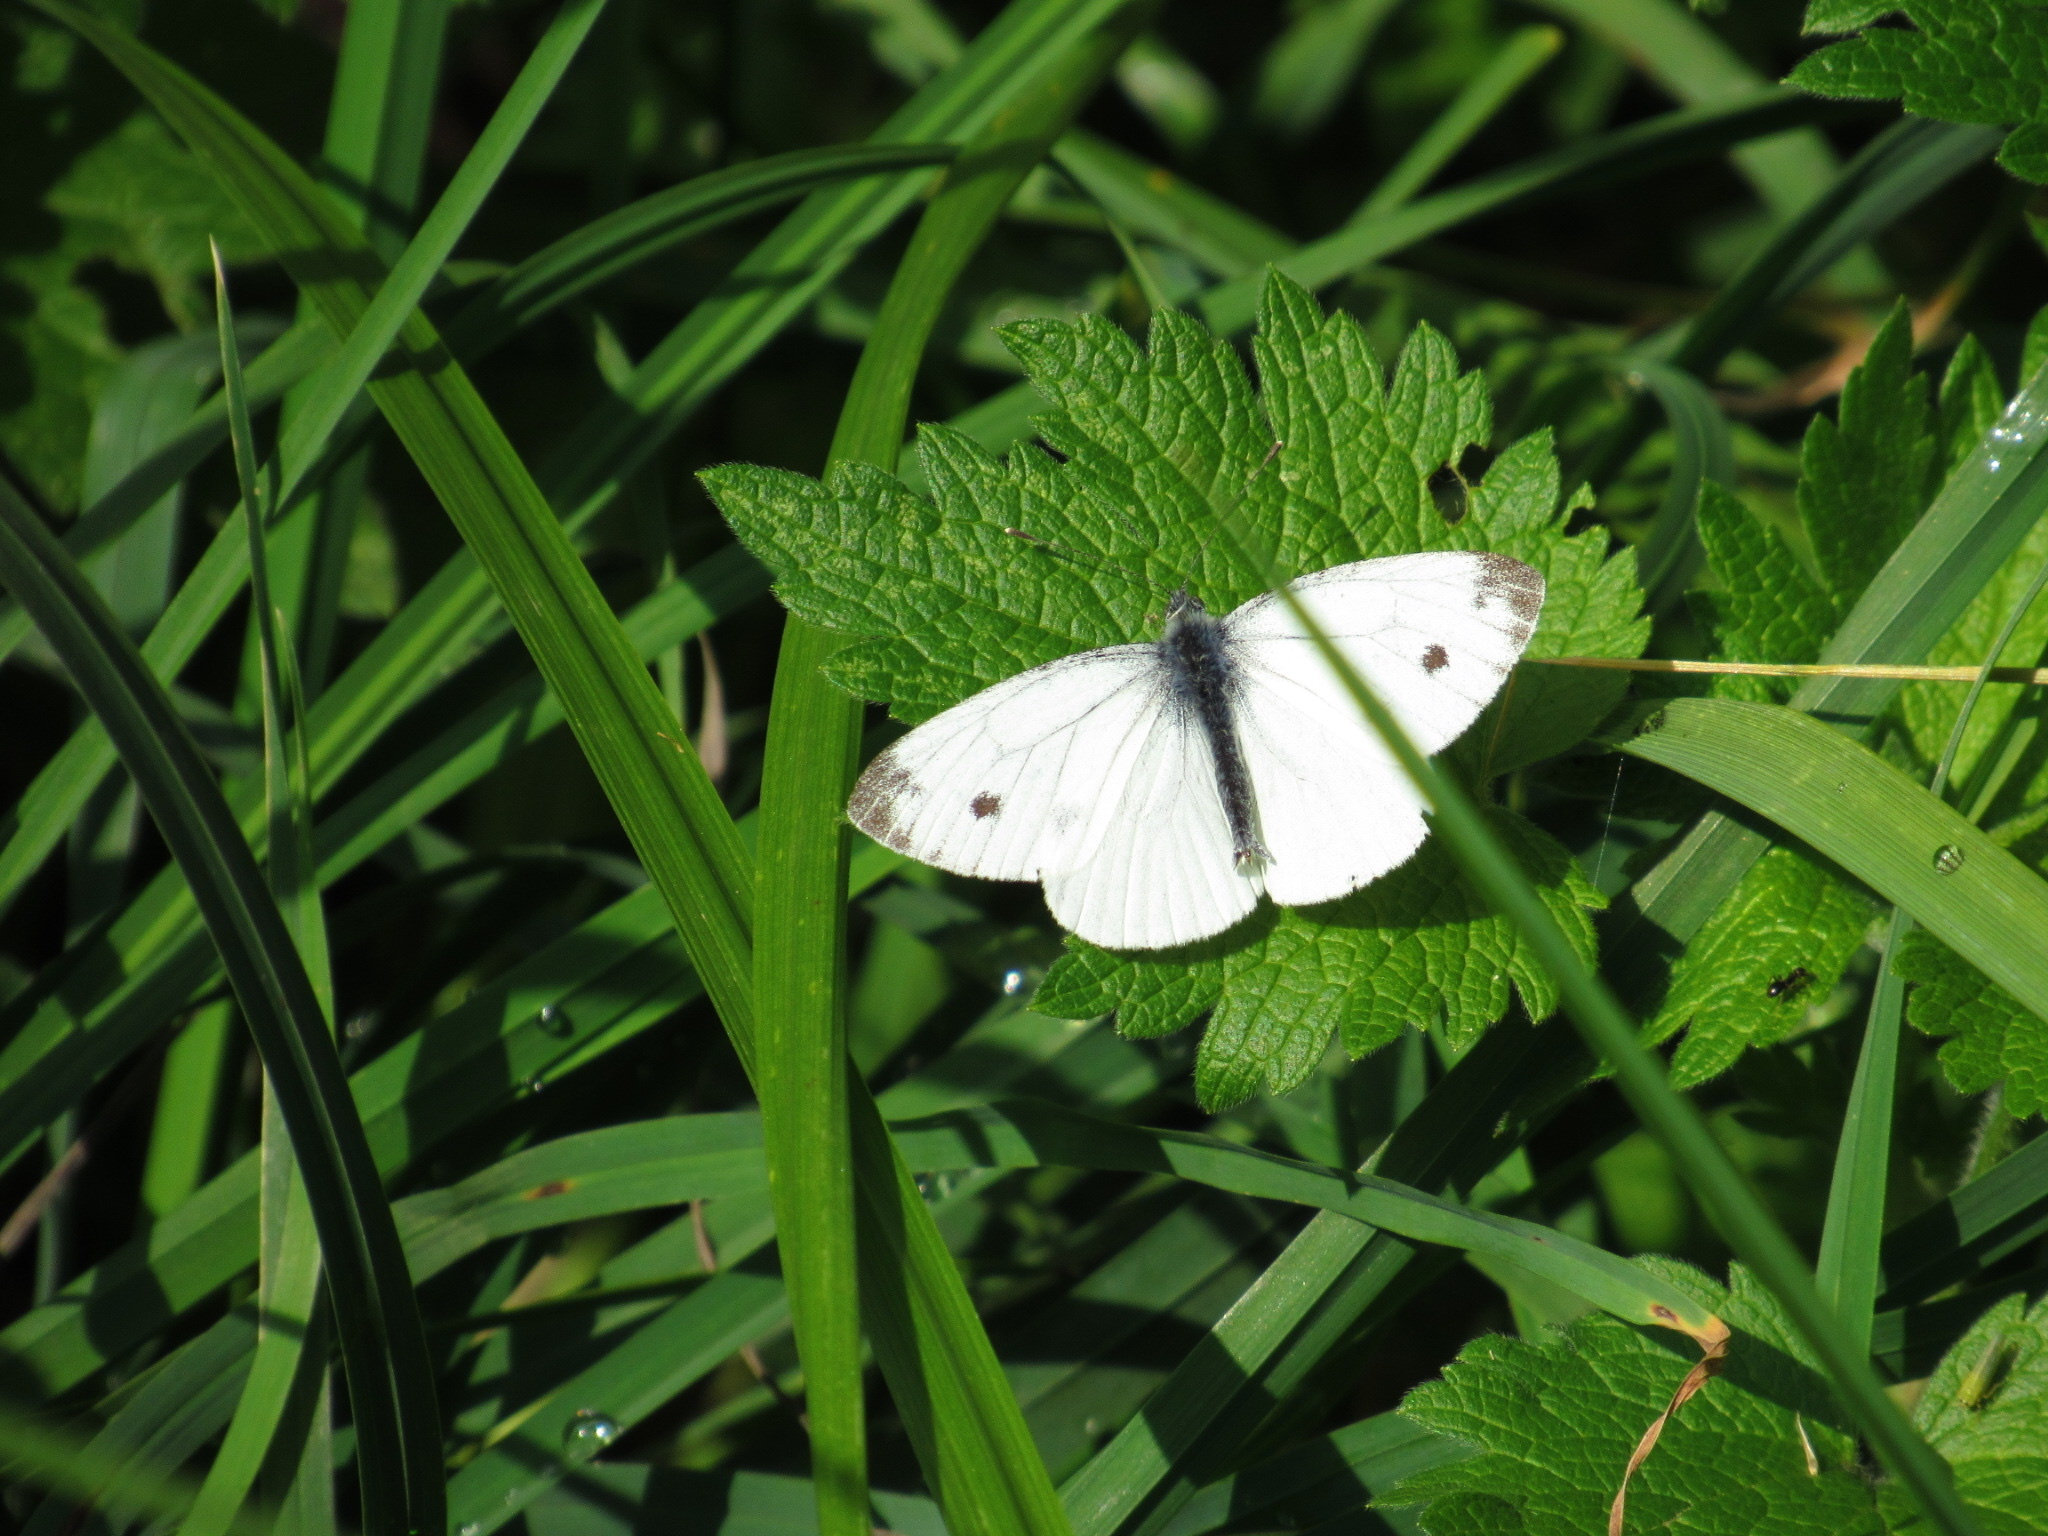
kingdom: Animalia
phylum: Arthropoda
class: Insecta
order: Lepidoptera
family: Pieridae
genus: Pieris
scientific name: Pieris napi
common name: Green-veined white
